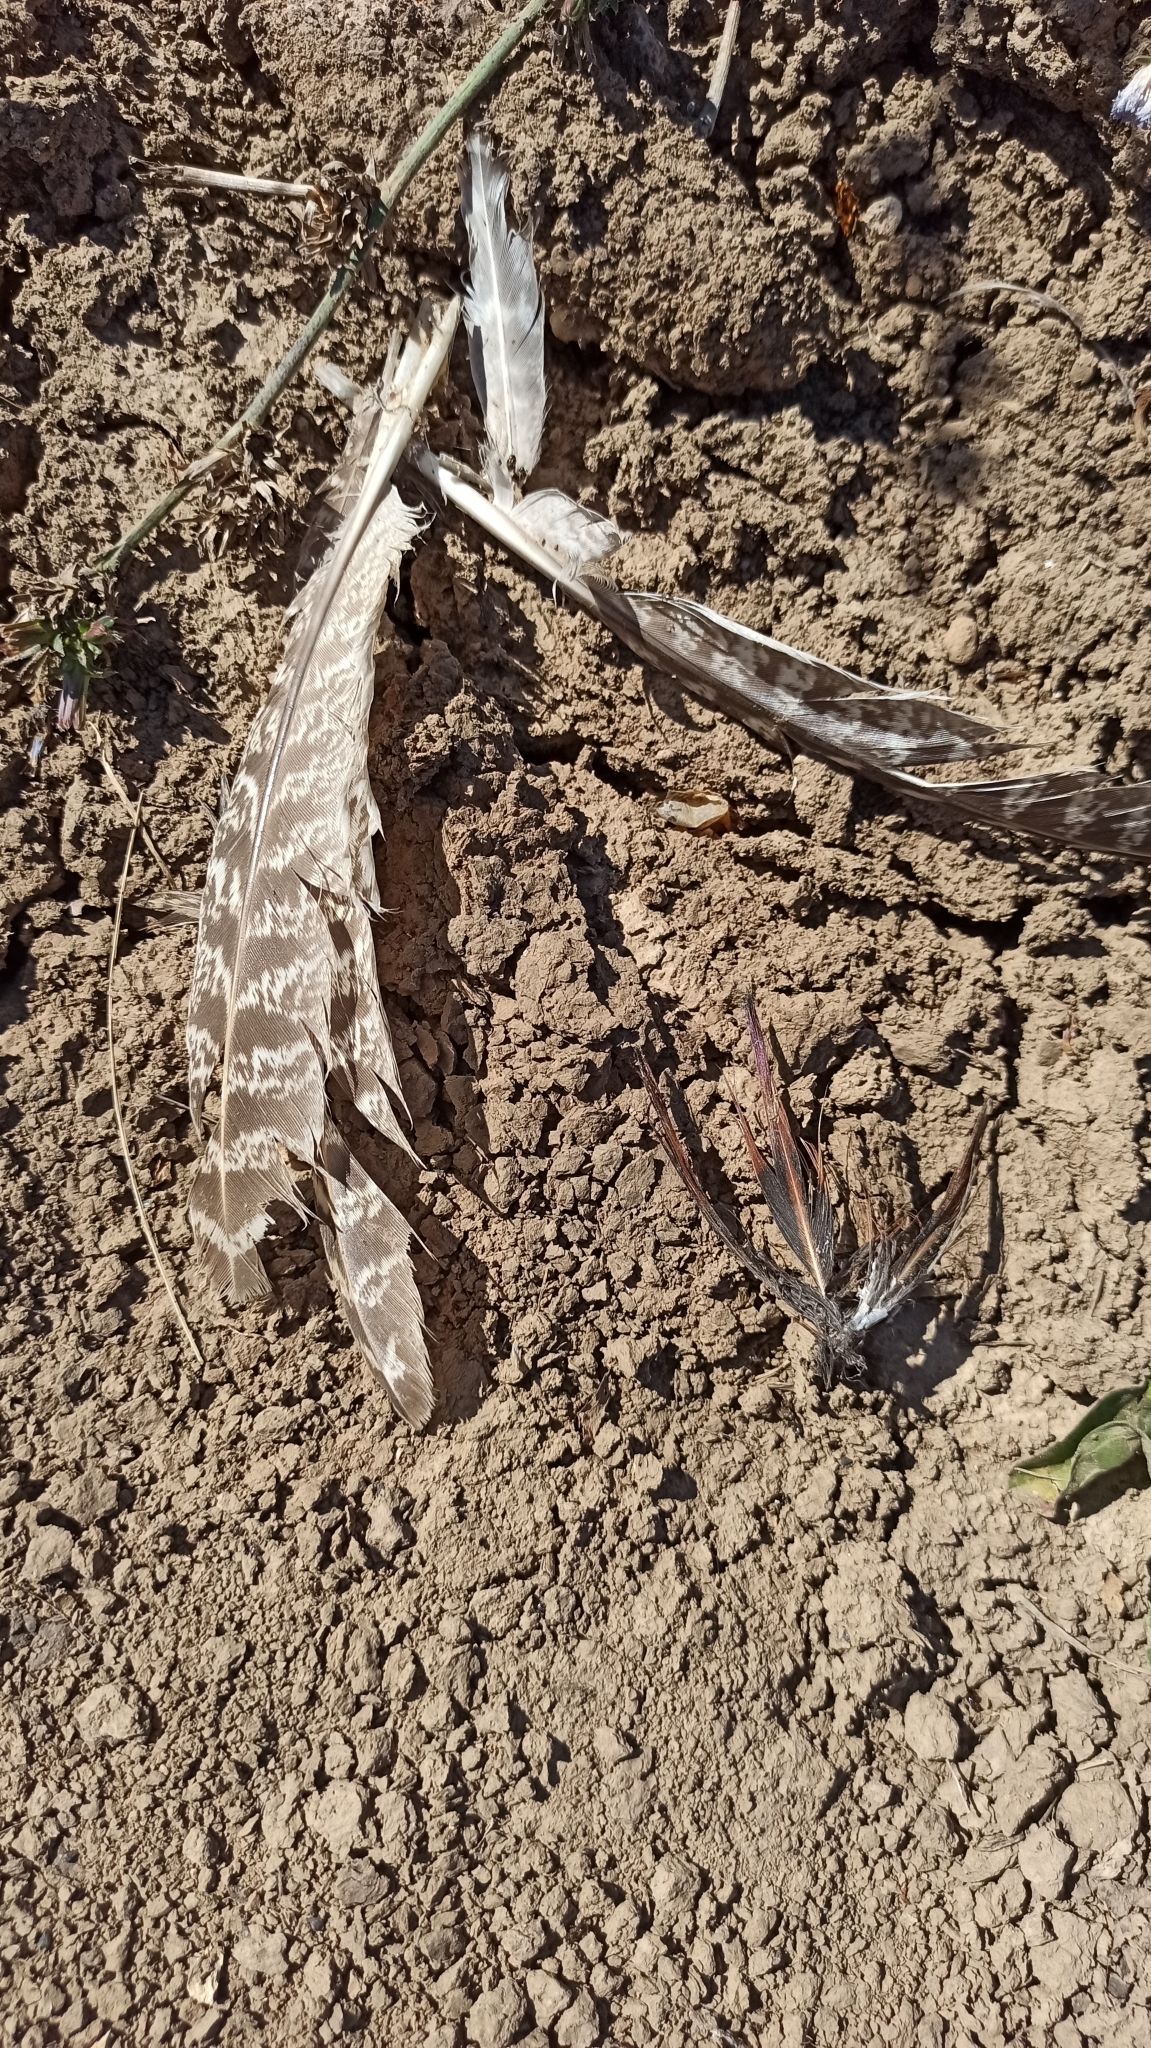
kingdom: Animalia
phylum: Chordata
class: Aves
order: Galliformes
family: Phasianidae
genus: Phasianus
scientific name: Phasianus colchicus
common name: Common pheasant
